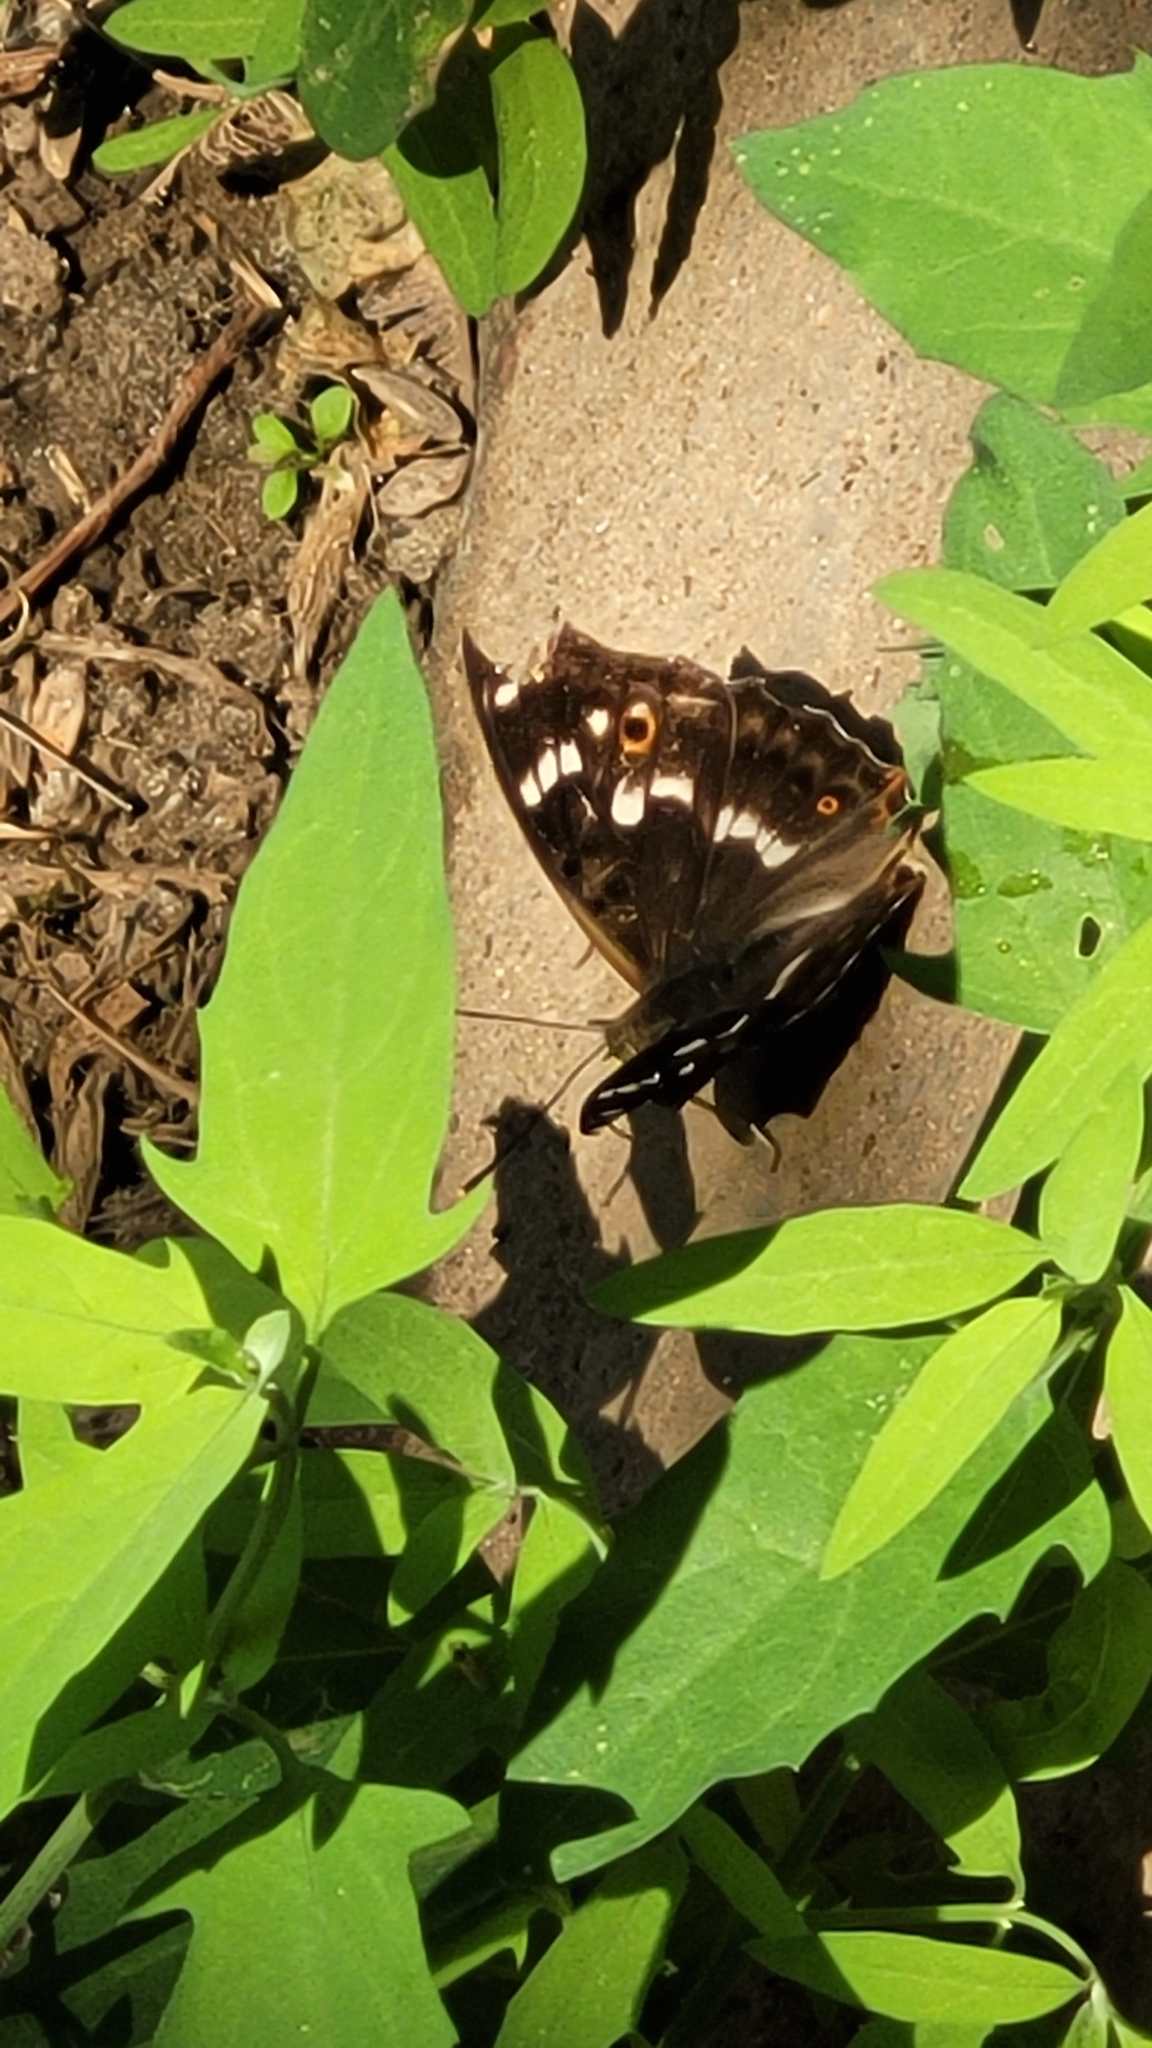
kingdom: Animalia
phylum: Arthropoda
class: Insecta
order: Lepidoptera
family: Nymphalidae
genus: Apatura
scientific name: Apatura ilia
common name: Lesser purple emperor
